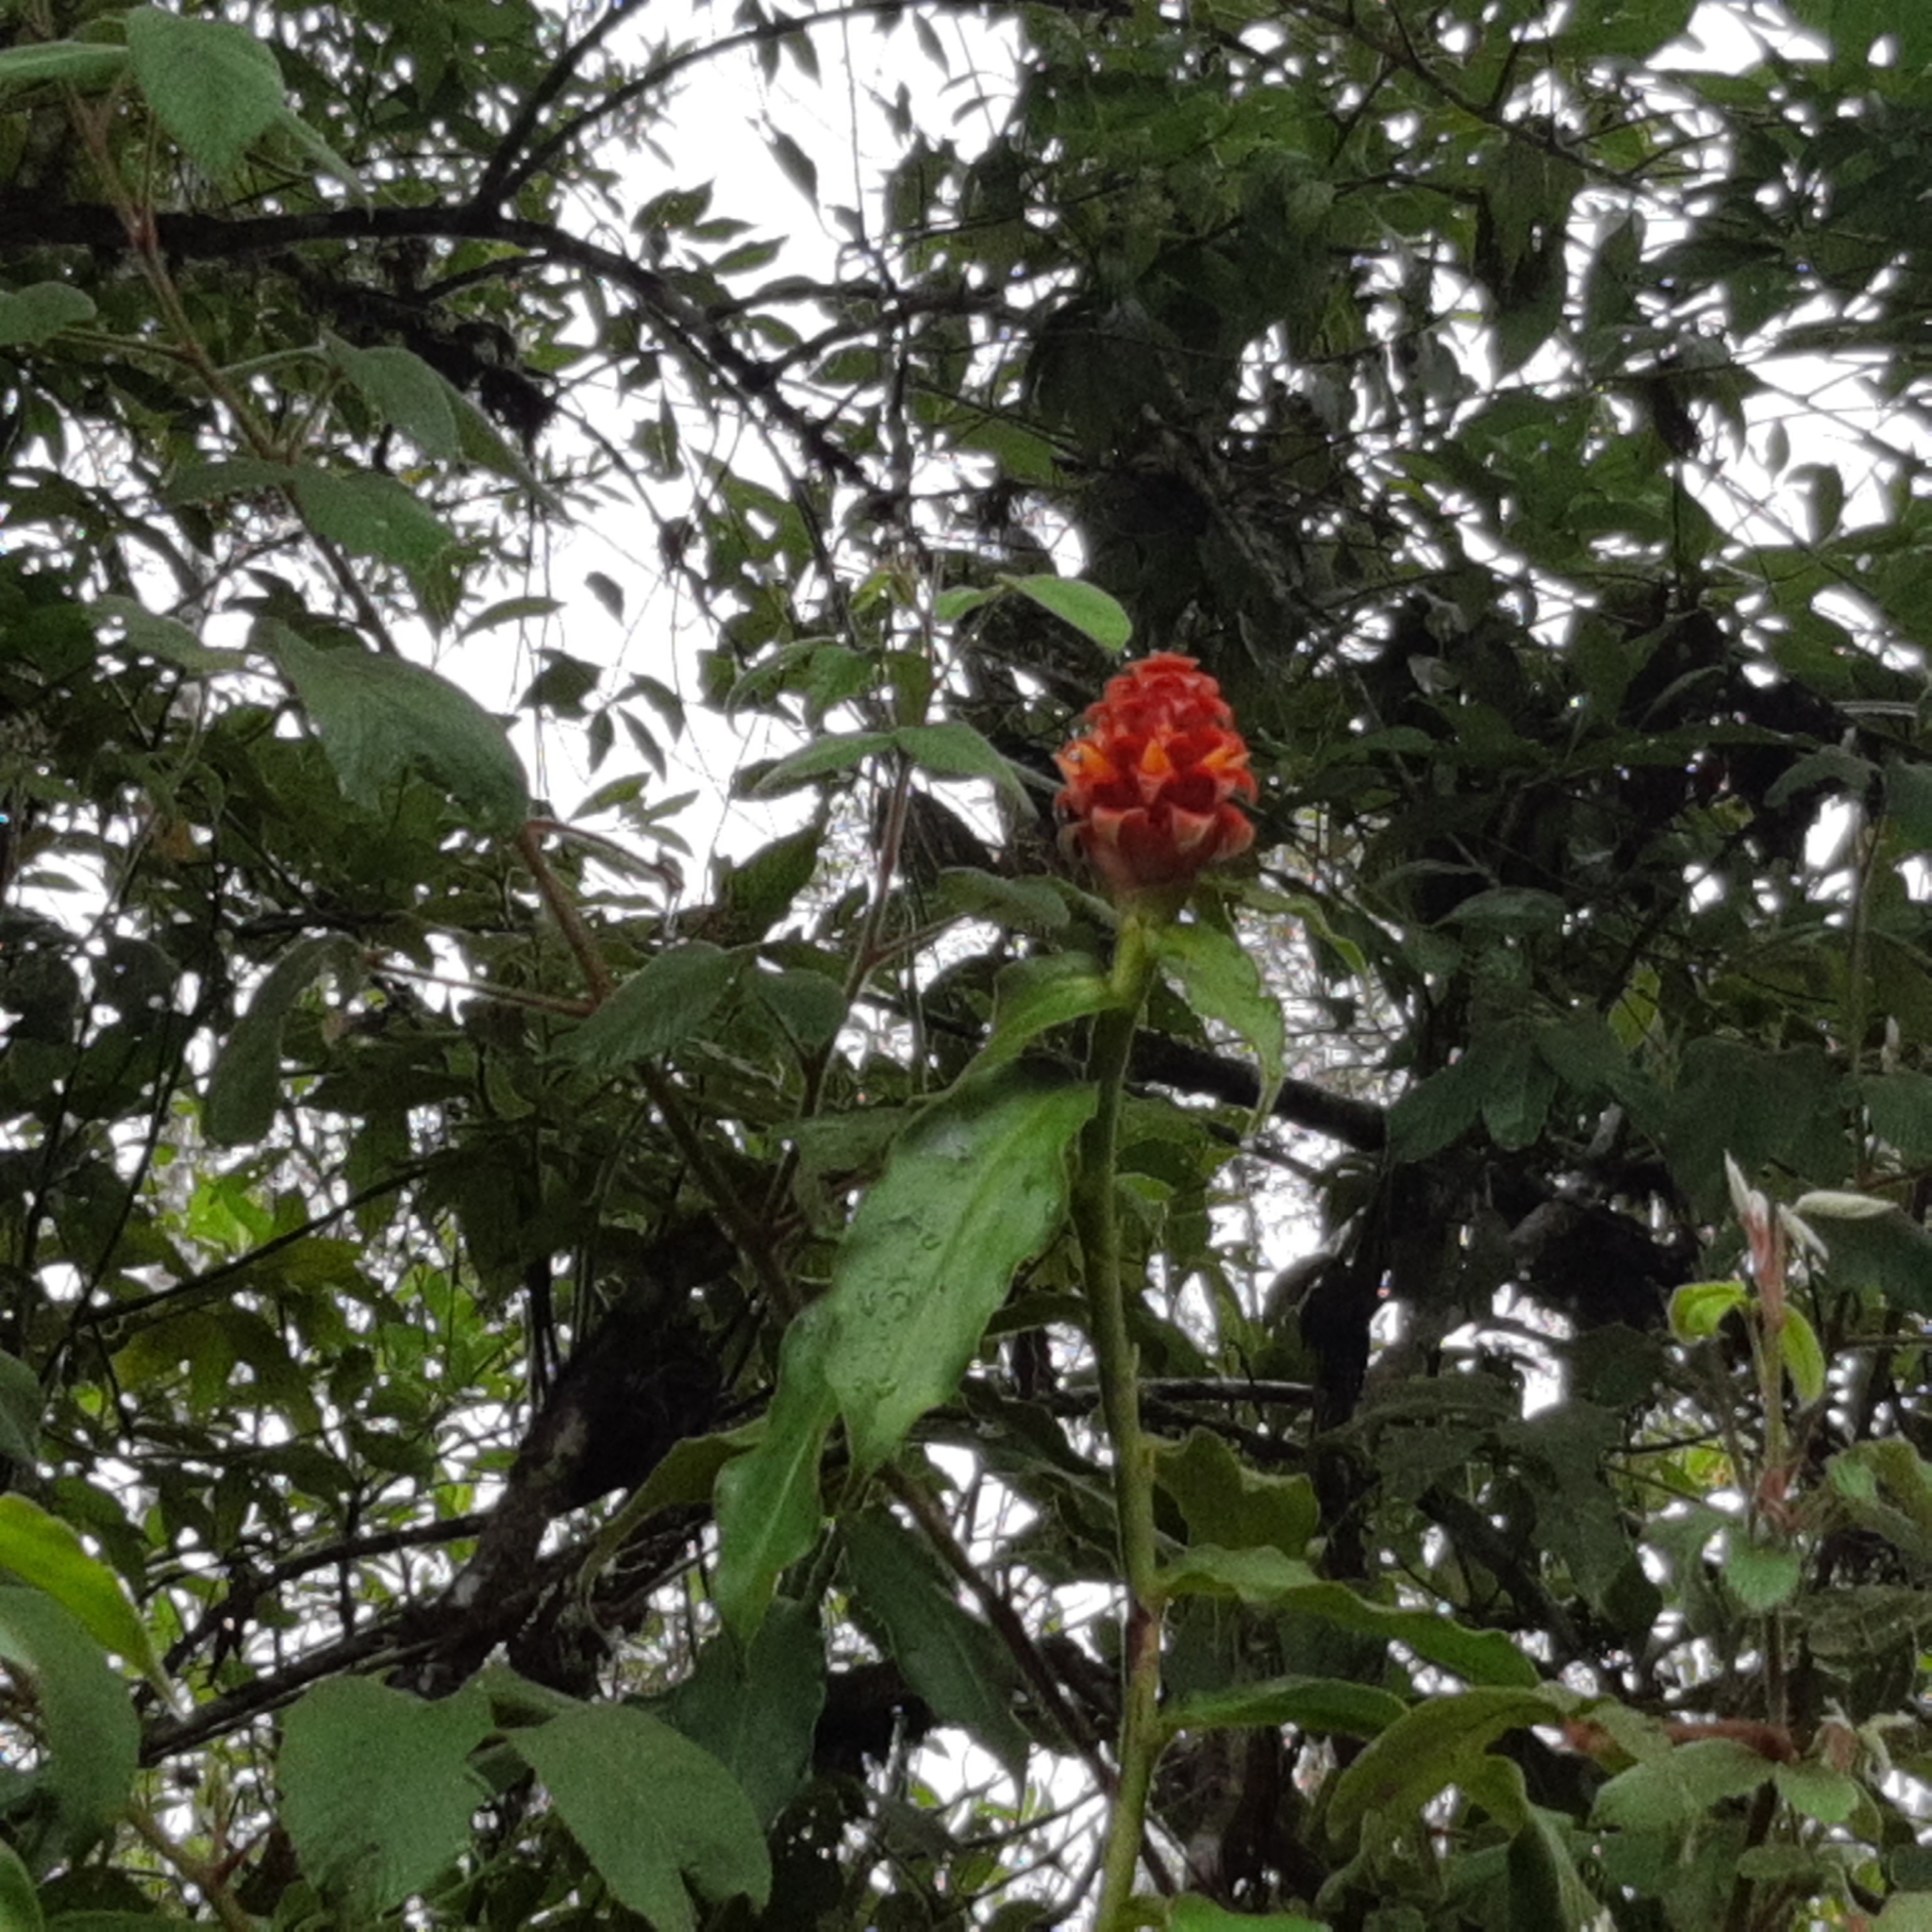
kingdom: Plantae
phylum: Tracheophyta
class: Liliopsida
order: Zingiberales
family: Costaceae
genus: Costus
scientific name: Costus montanus
